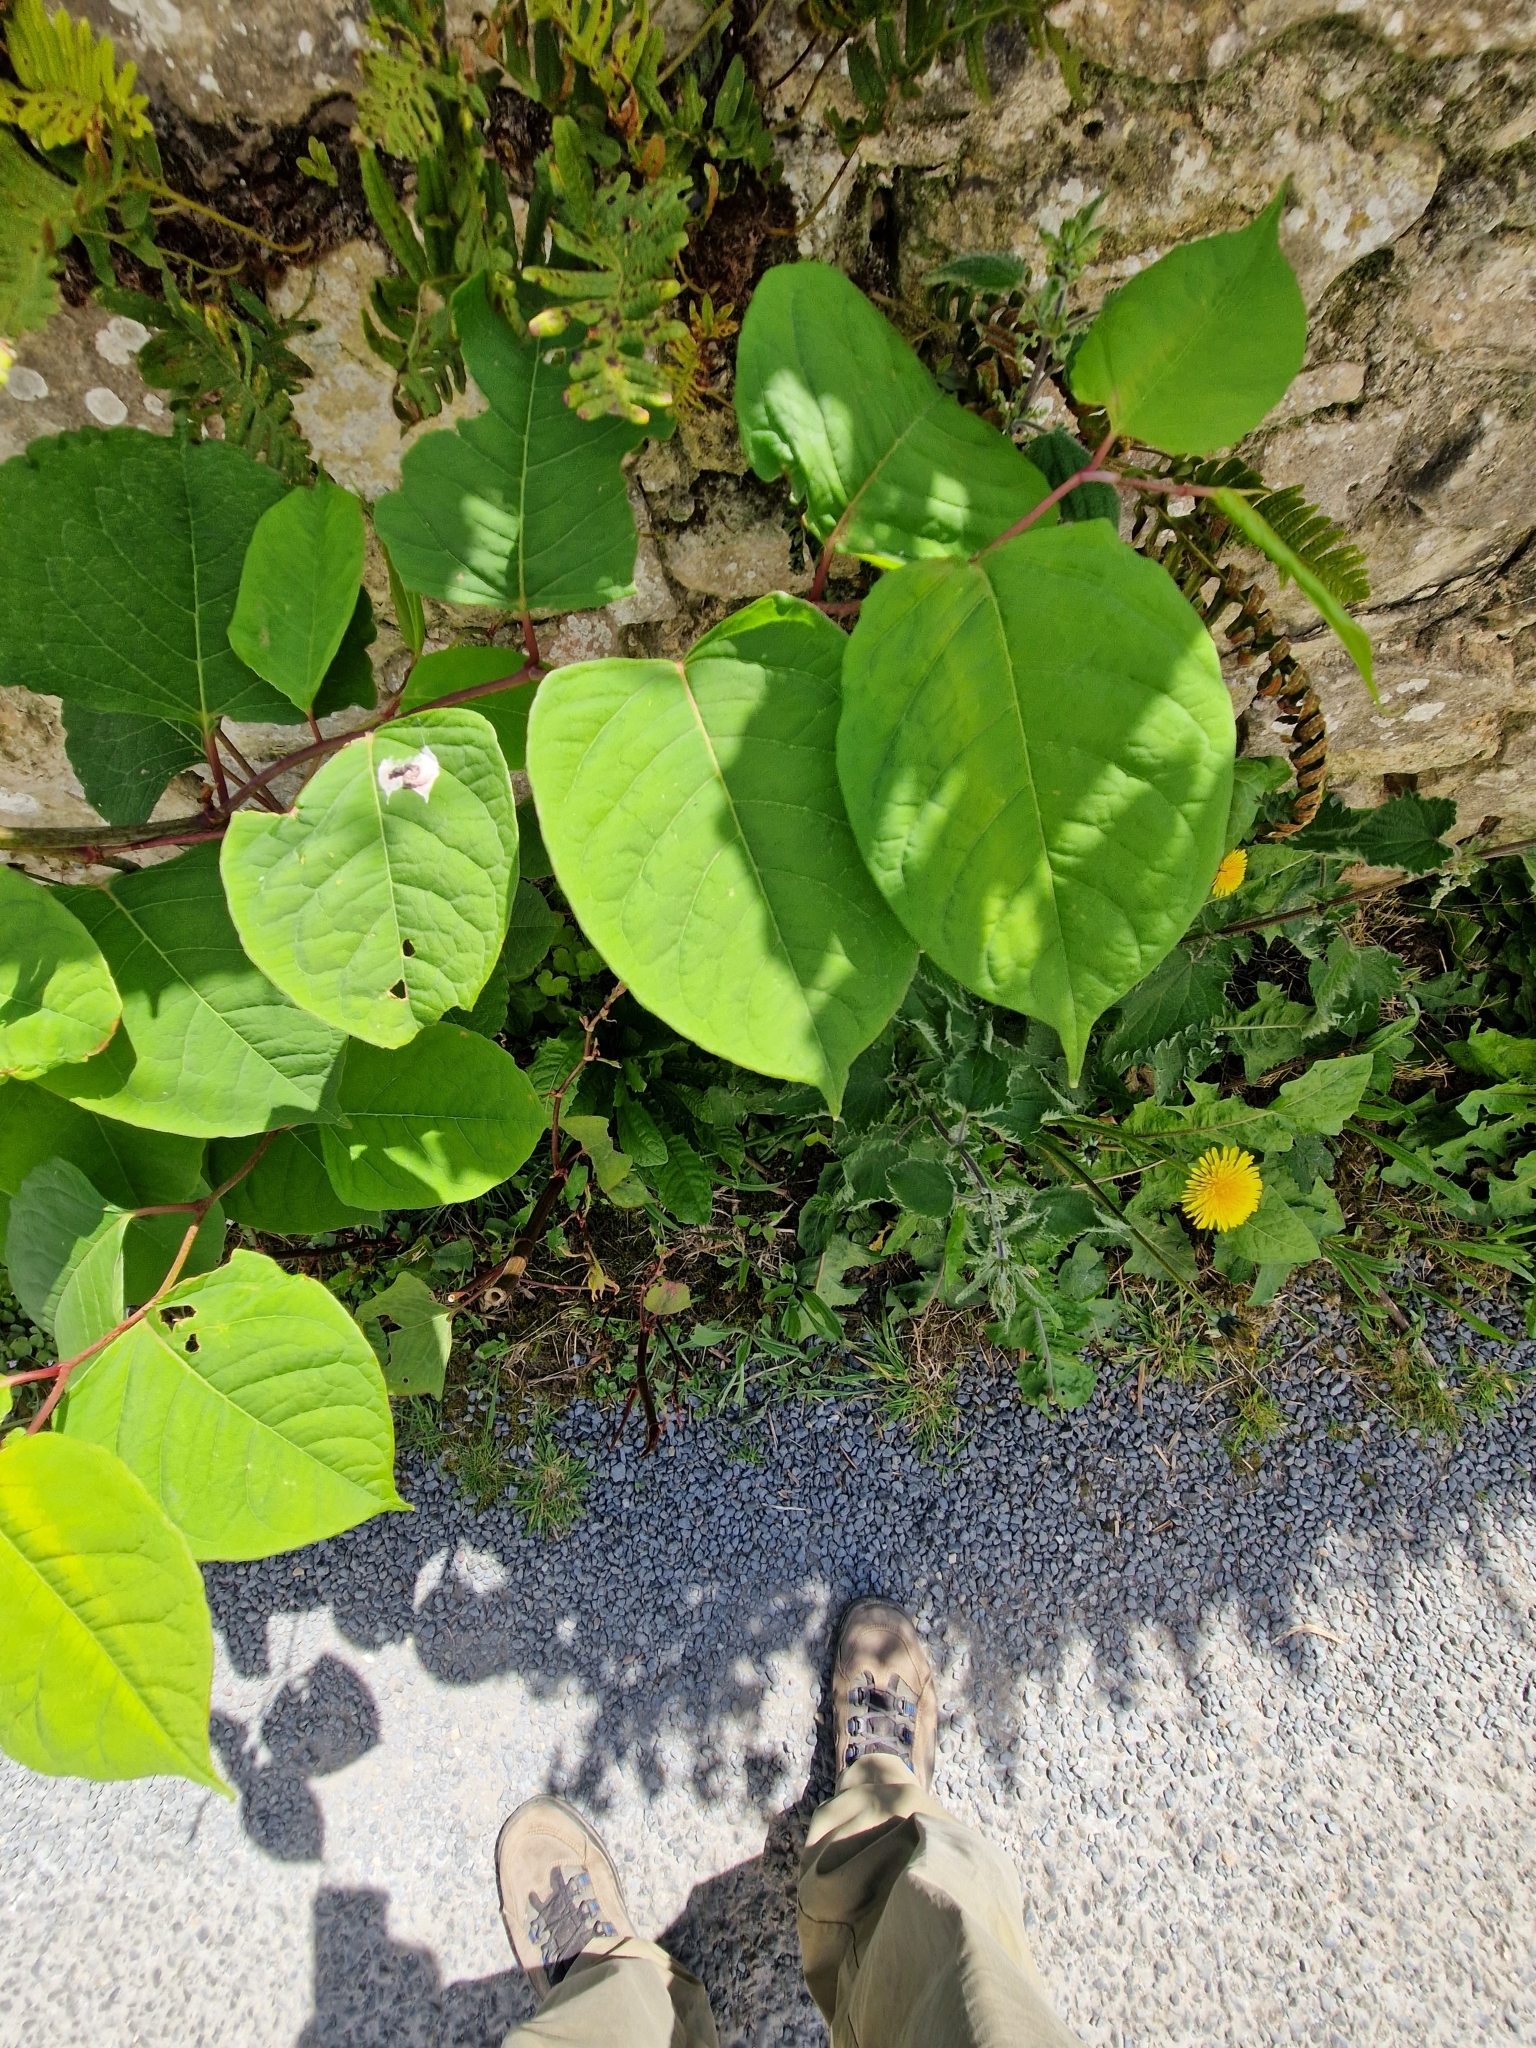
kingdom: Plantae
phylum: Tracheophyta
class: Magnoliopsida
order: Caryophyllales
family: Polygonaceae
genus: Reynoutria
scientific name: Reynoutria japonica
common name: Japanese knotweed
